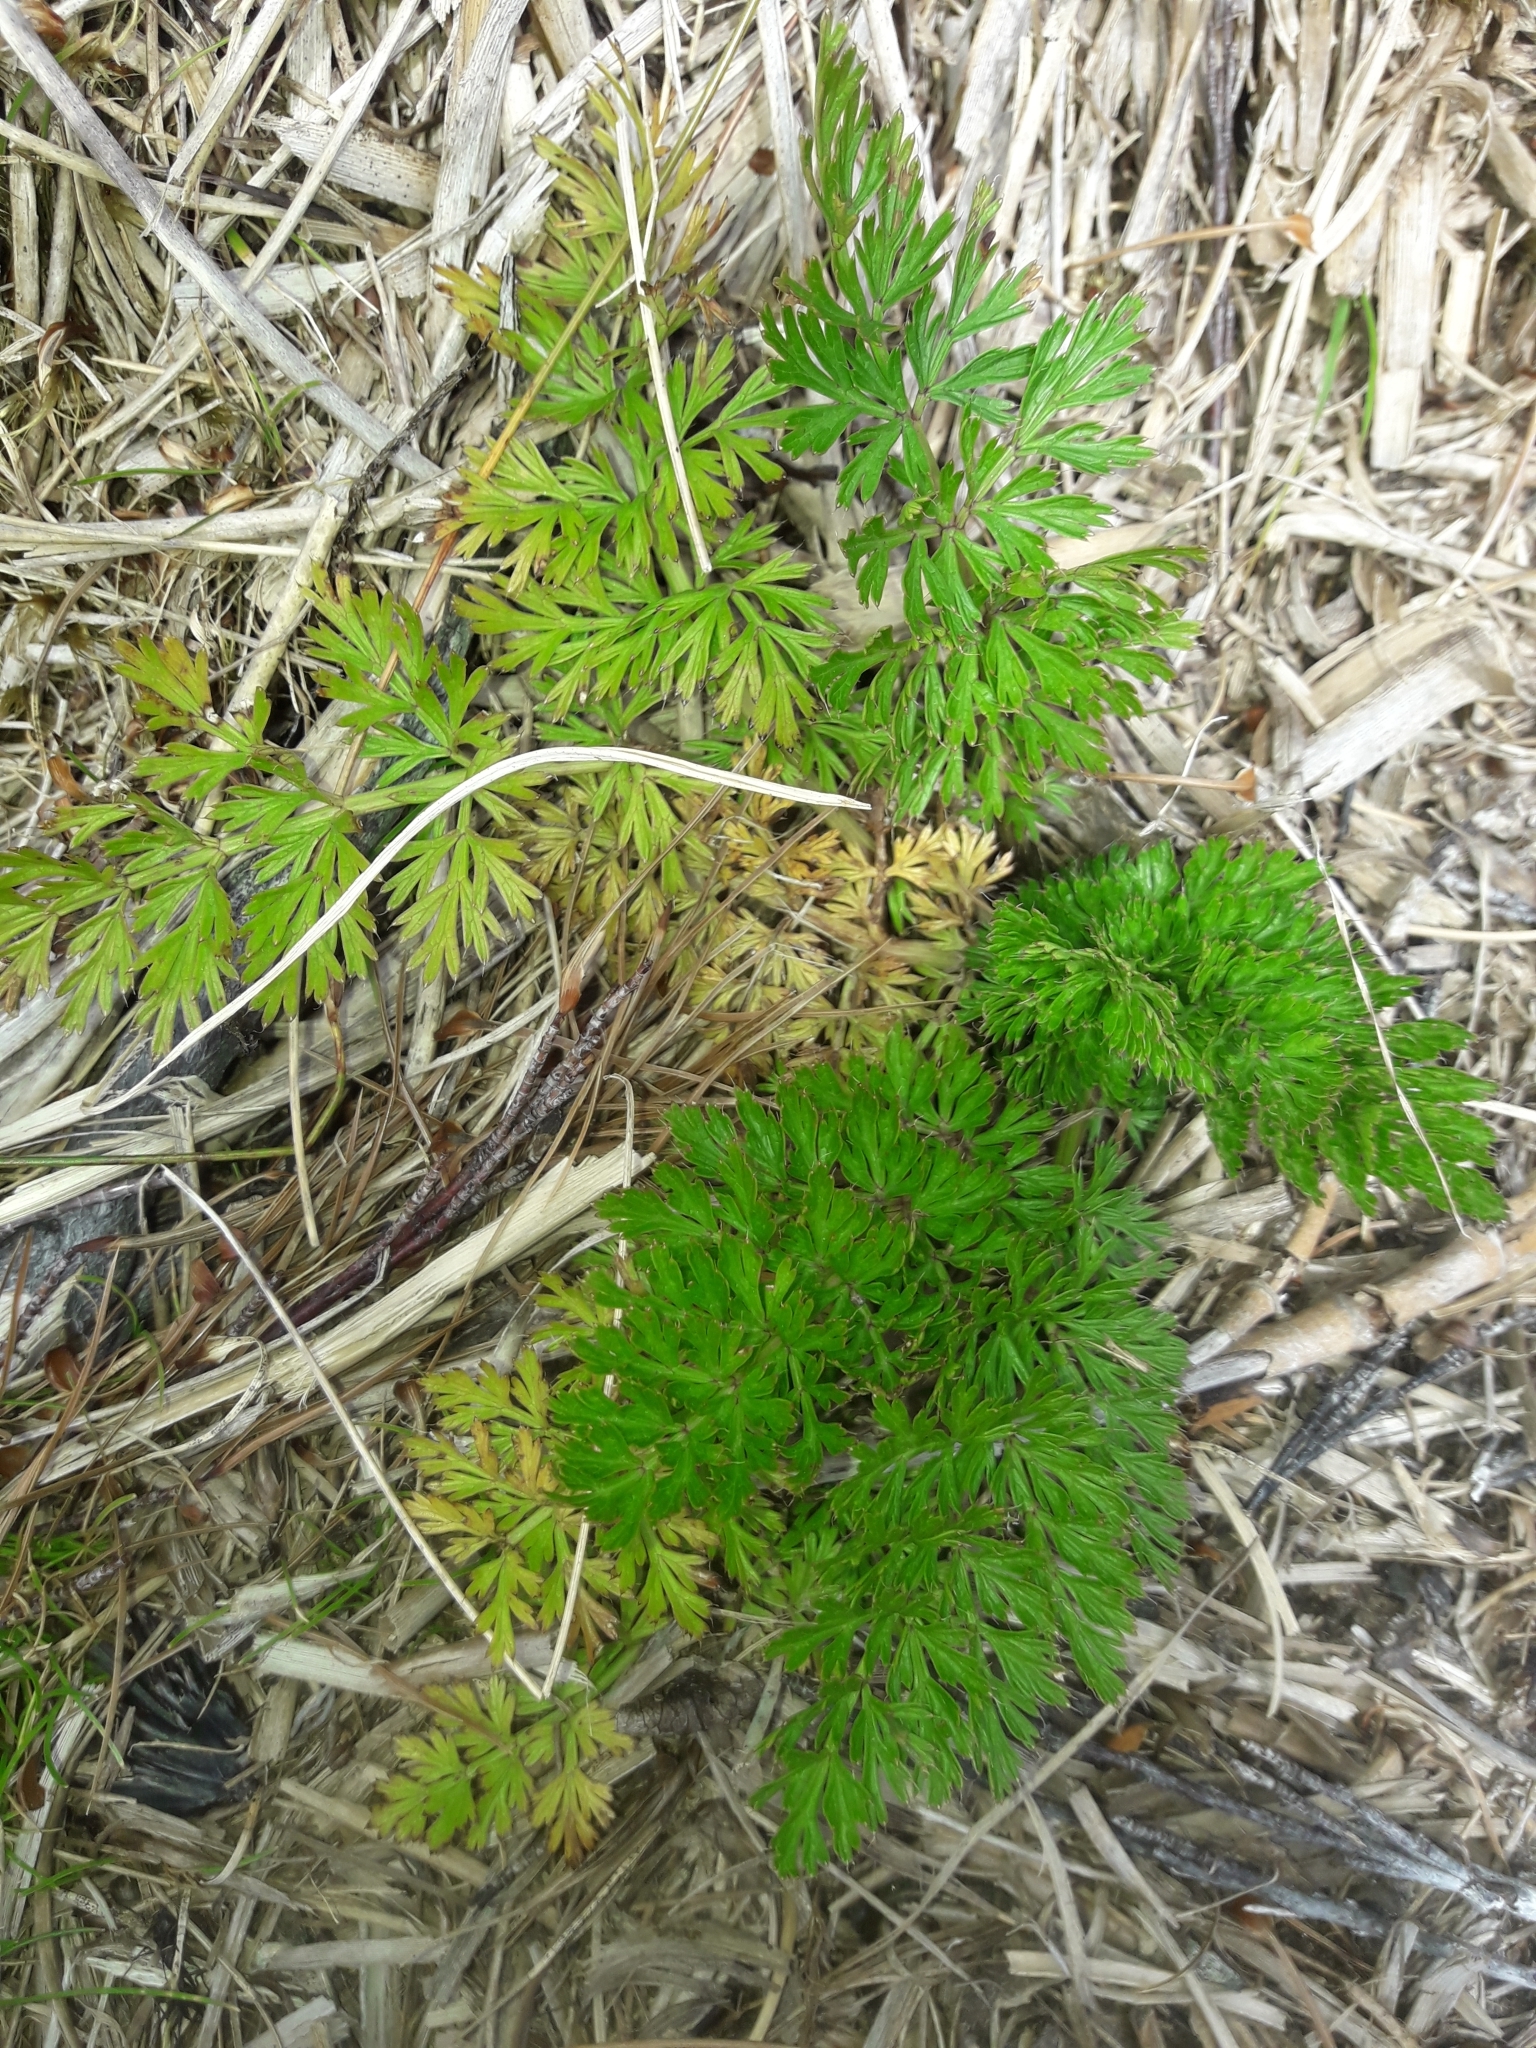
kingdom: Plantae
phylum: Tracheophyta
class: Magnoliopsida
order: Apiales
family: Apiaceae
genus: Anisotome
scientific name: Anisotome haastii
